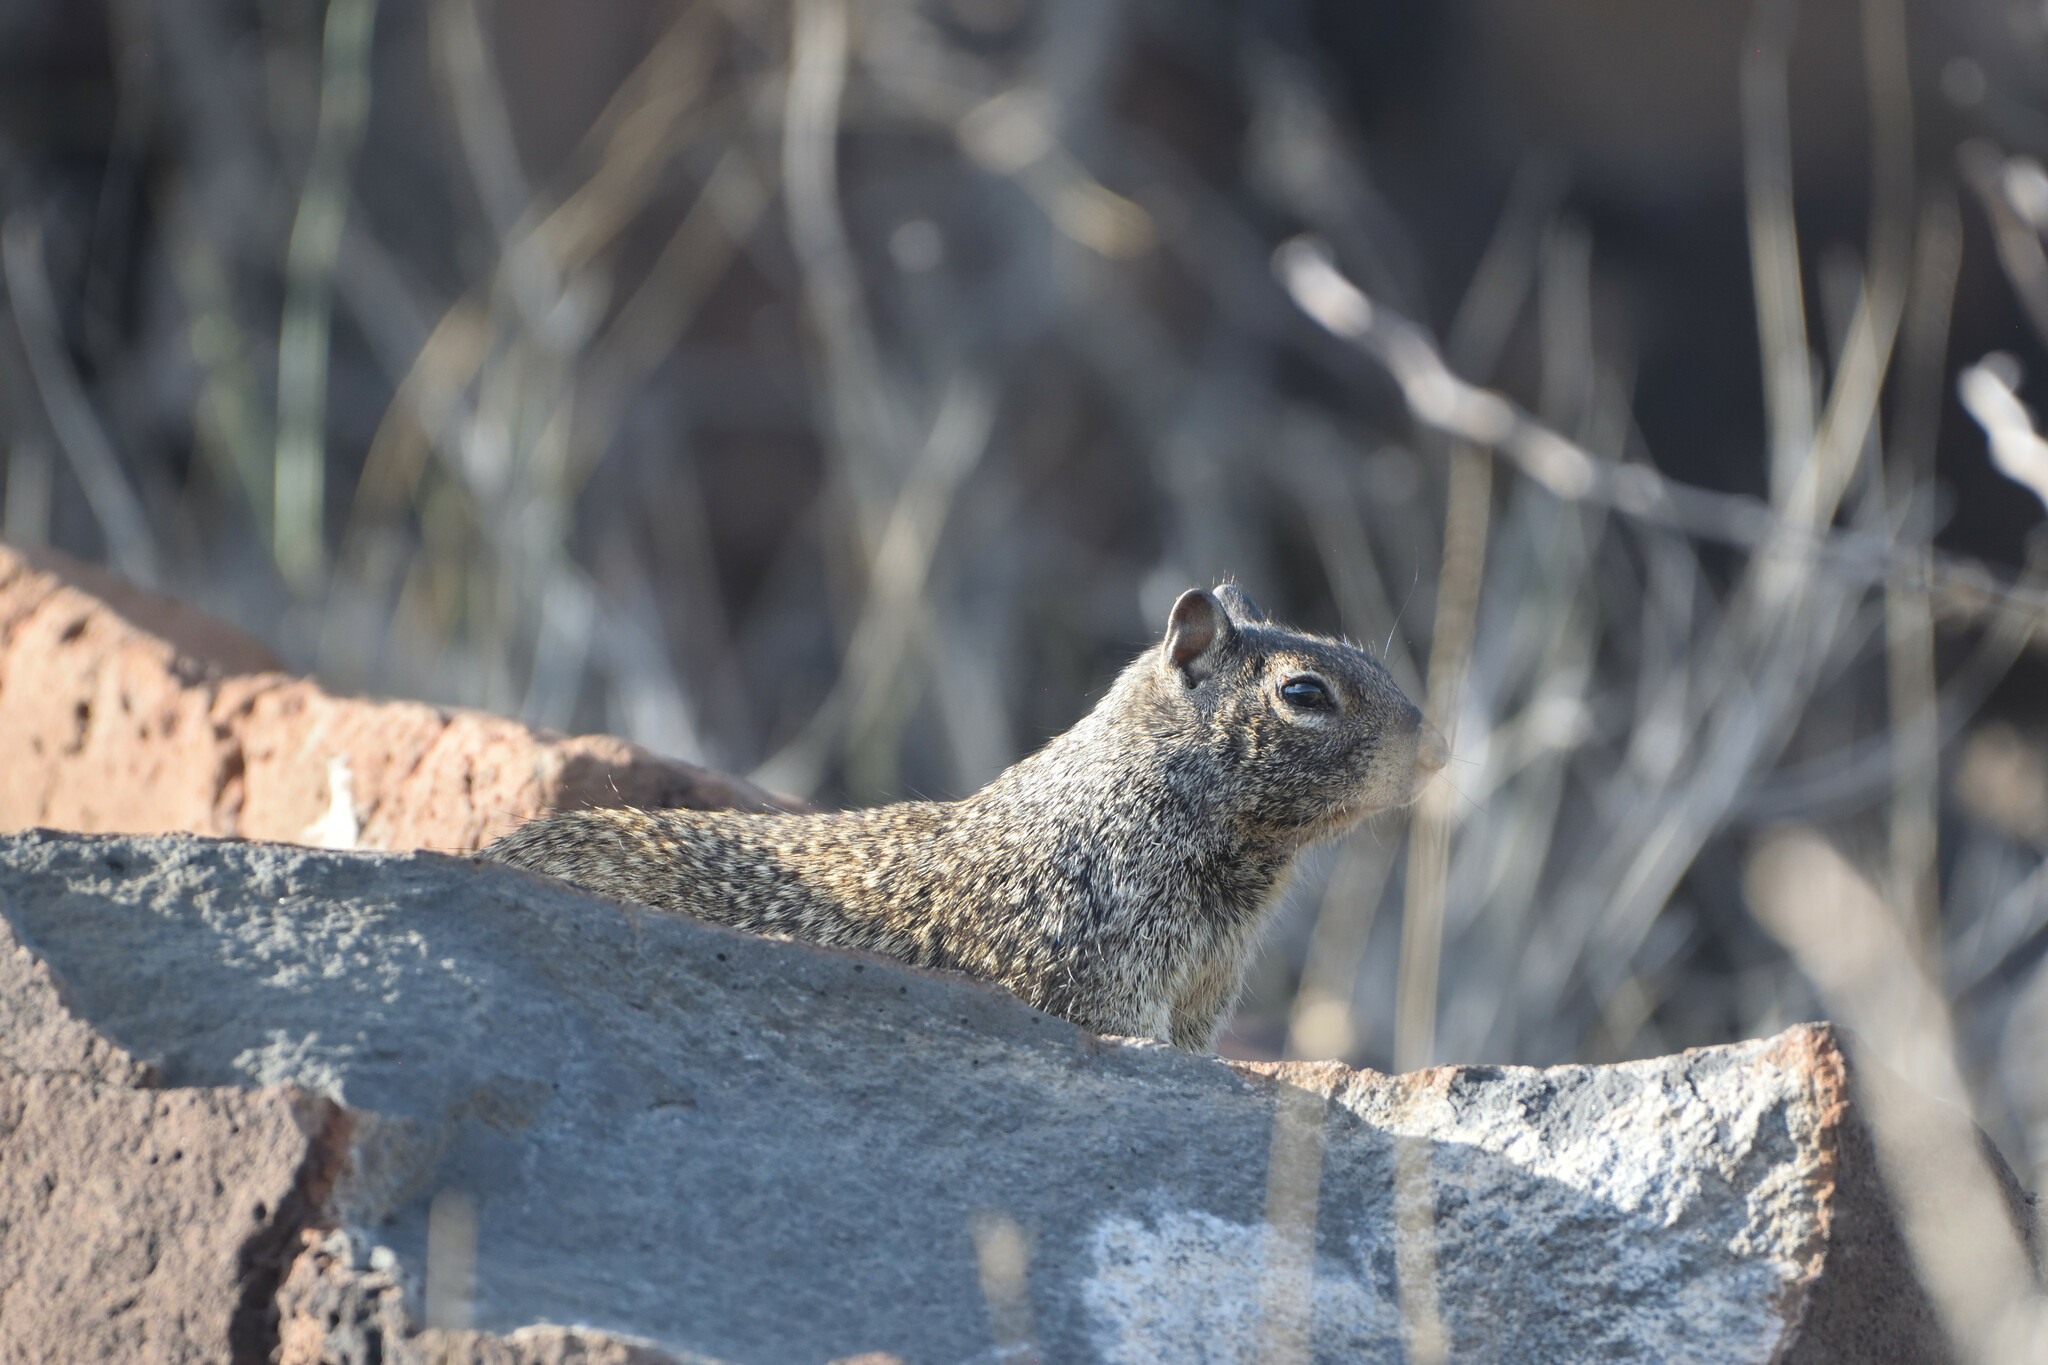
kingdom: Animalia
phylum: Chordata
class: Mammalia
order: Rodentia
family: Sciuridae
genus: Otospermophilus
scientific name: Otospermophilus atricapillus
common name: Baja california rock squirrel
